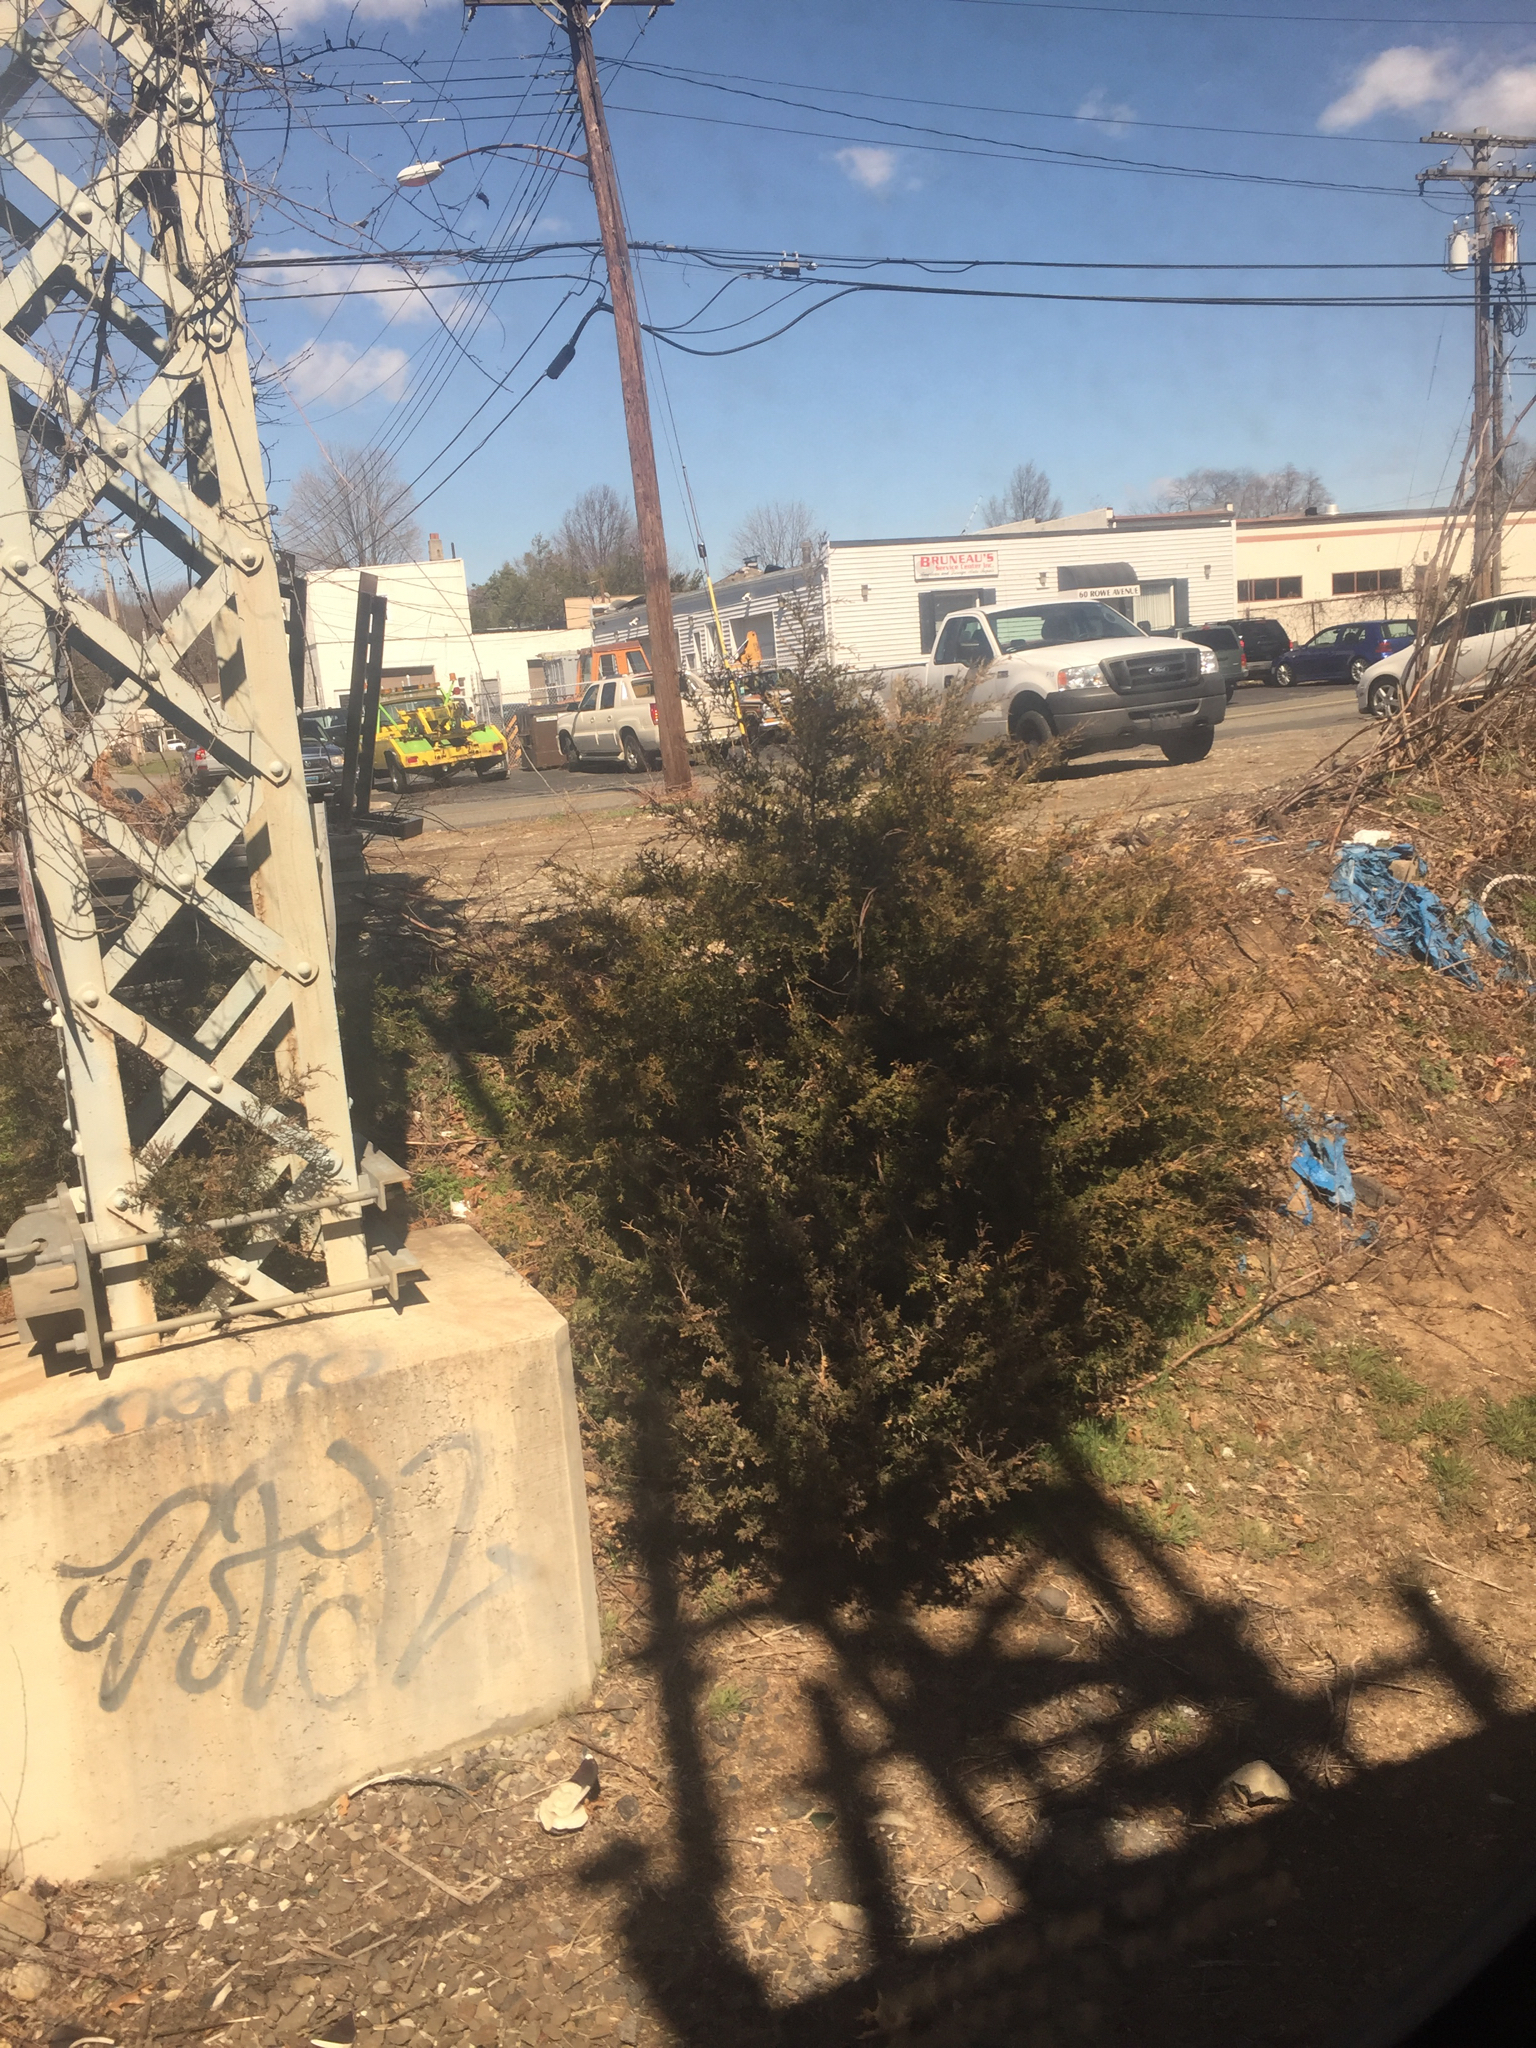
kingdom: Plantae
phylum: Tracheophyta
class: Pinopsida
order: Pinales
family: Cupressaceae
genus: Juniperus
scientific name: Juniperus virginiana
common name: Red juniper
